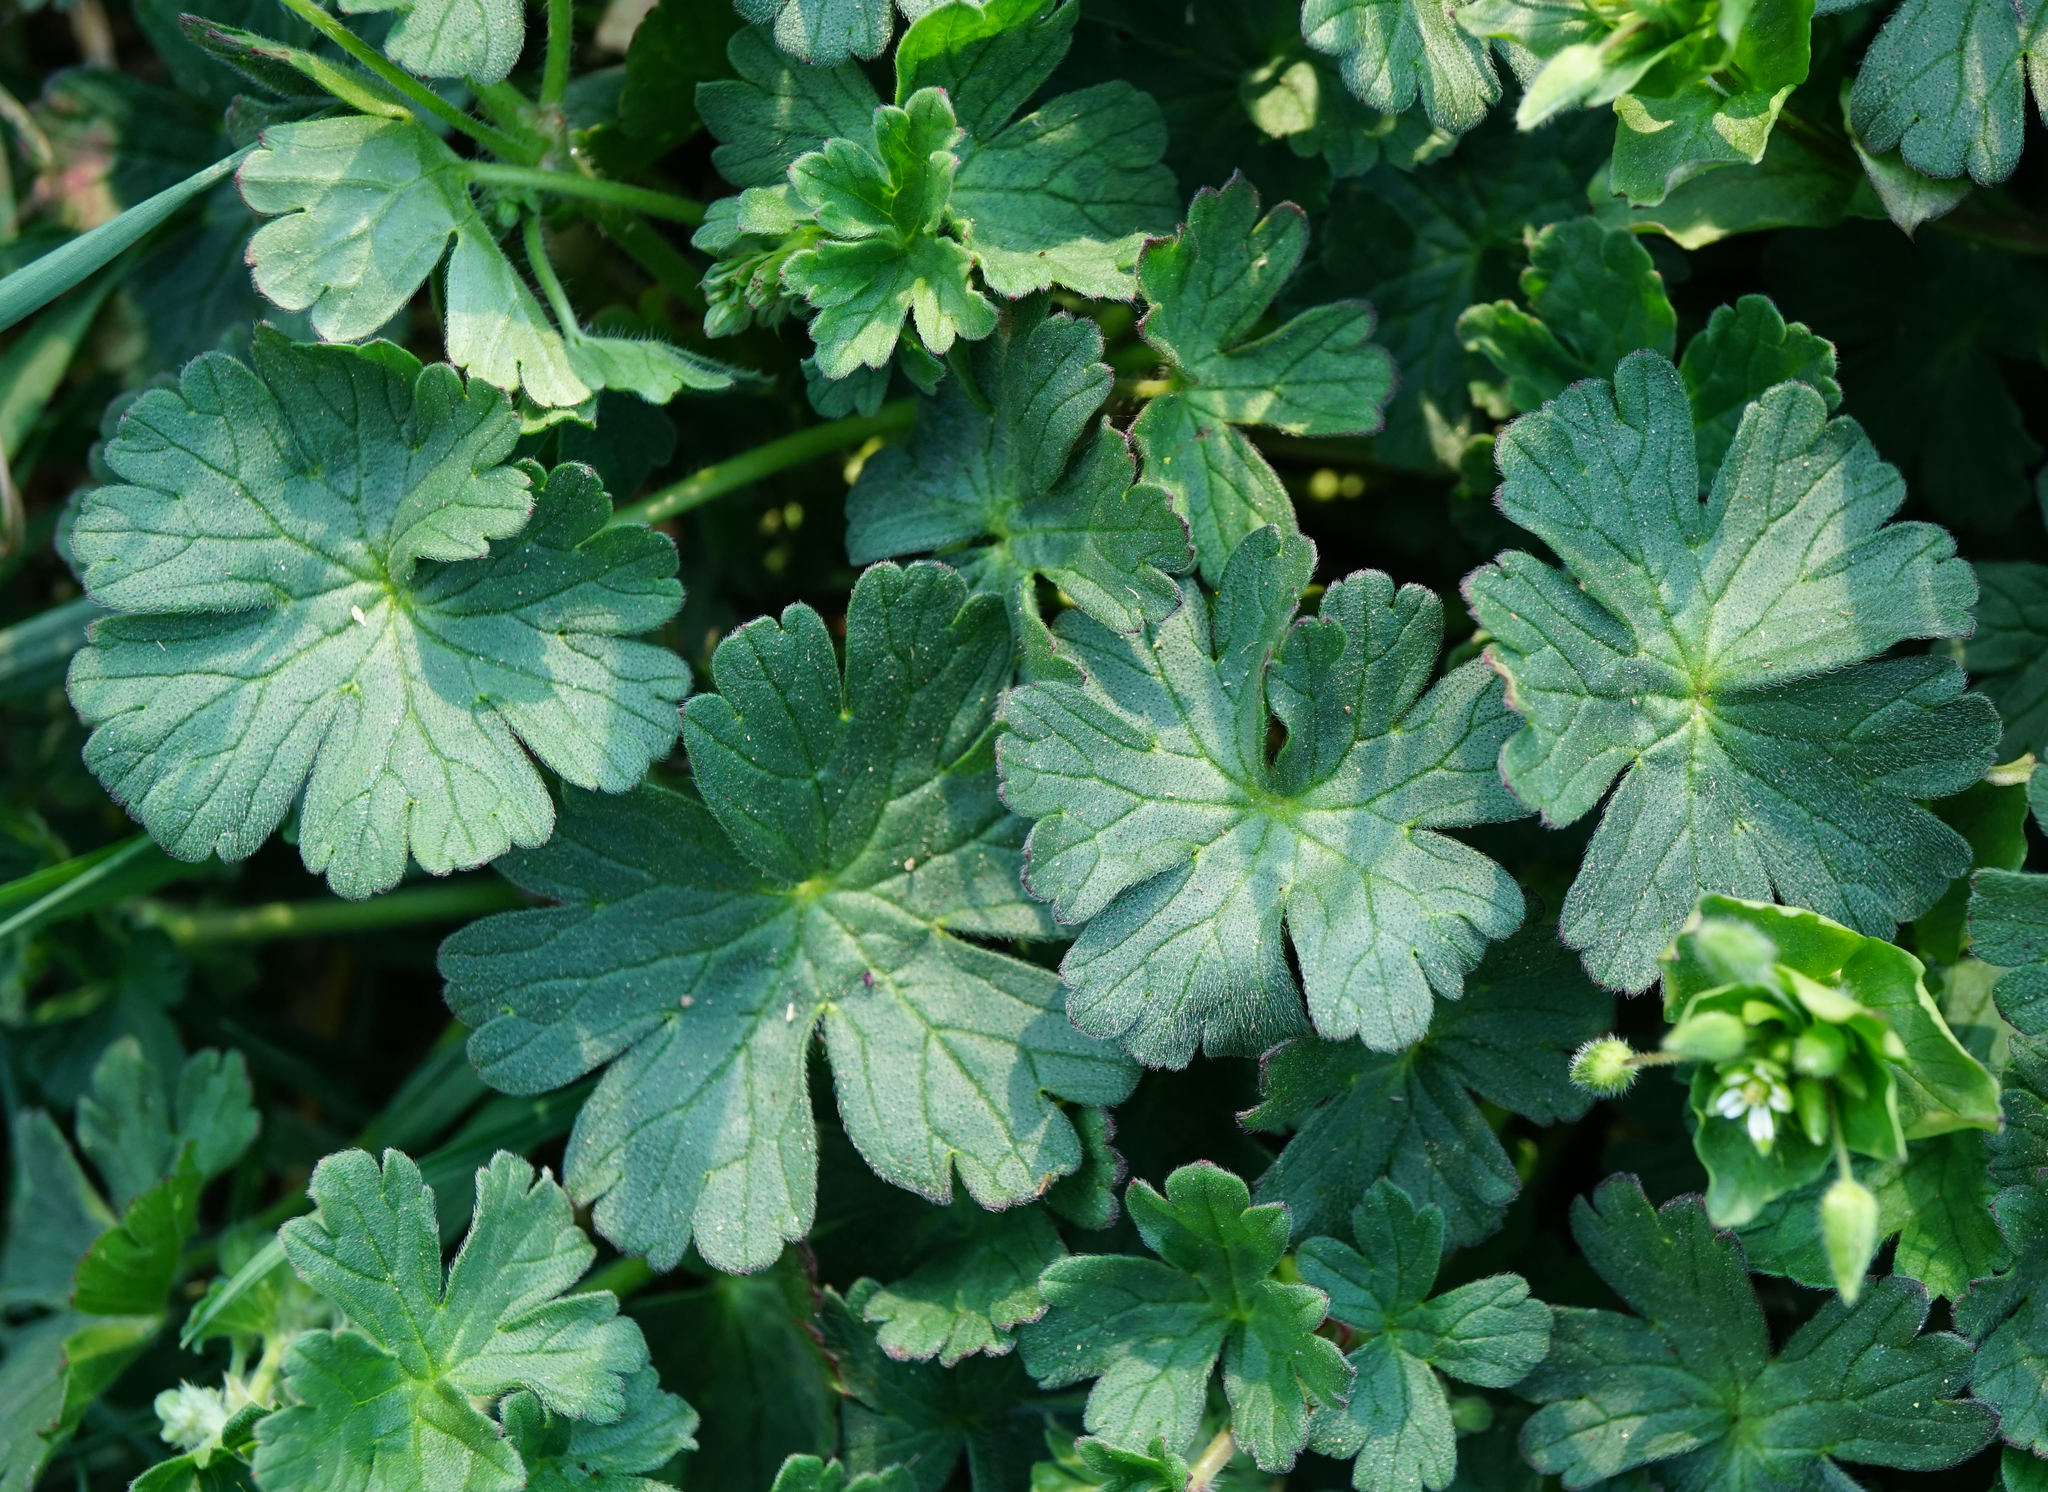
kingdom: Plantae
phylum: Tracheophyta
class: Magnoliopsida
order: Geraniales
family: Geraniaceae
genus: Geranium
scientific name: Geranium pyrenaicum
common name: Hedgerow crane's-bill
